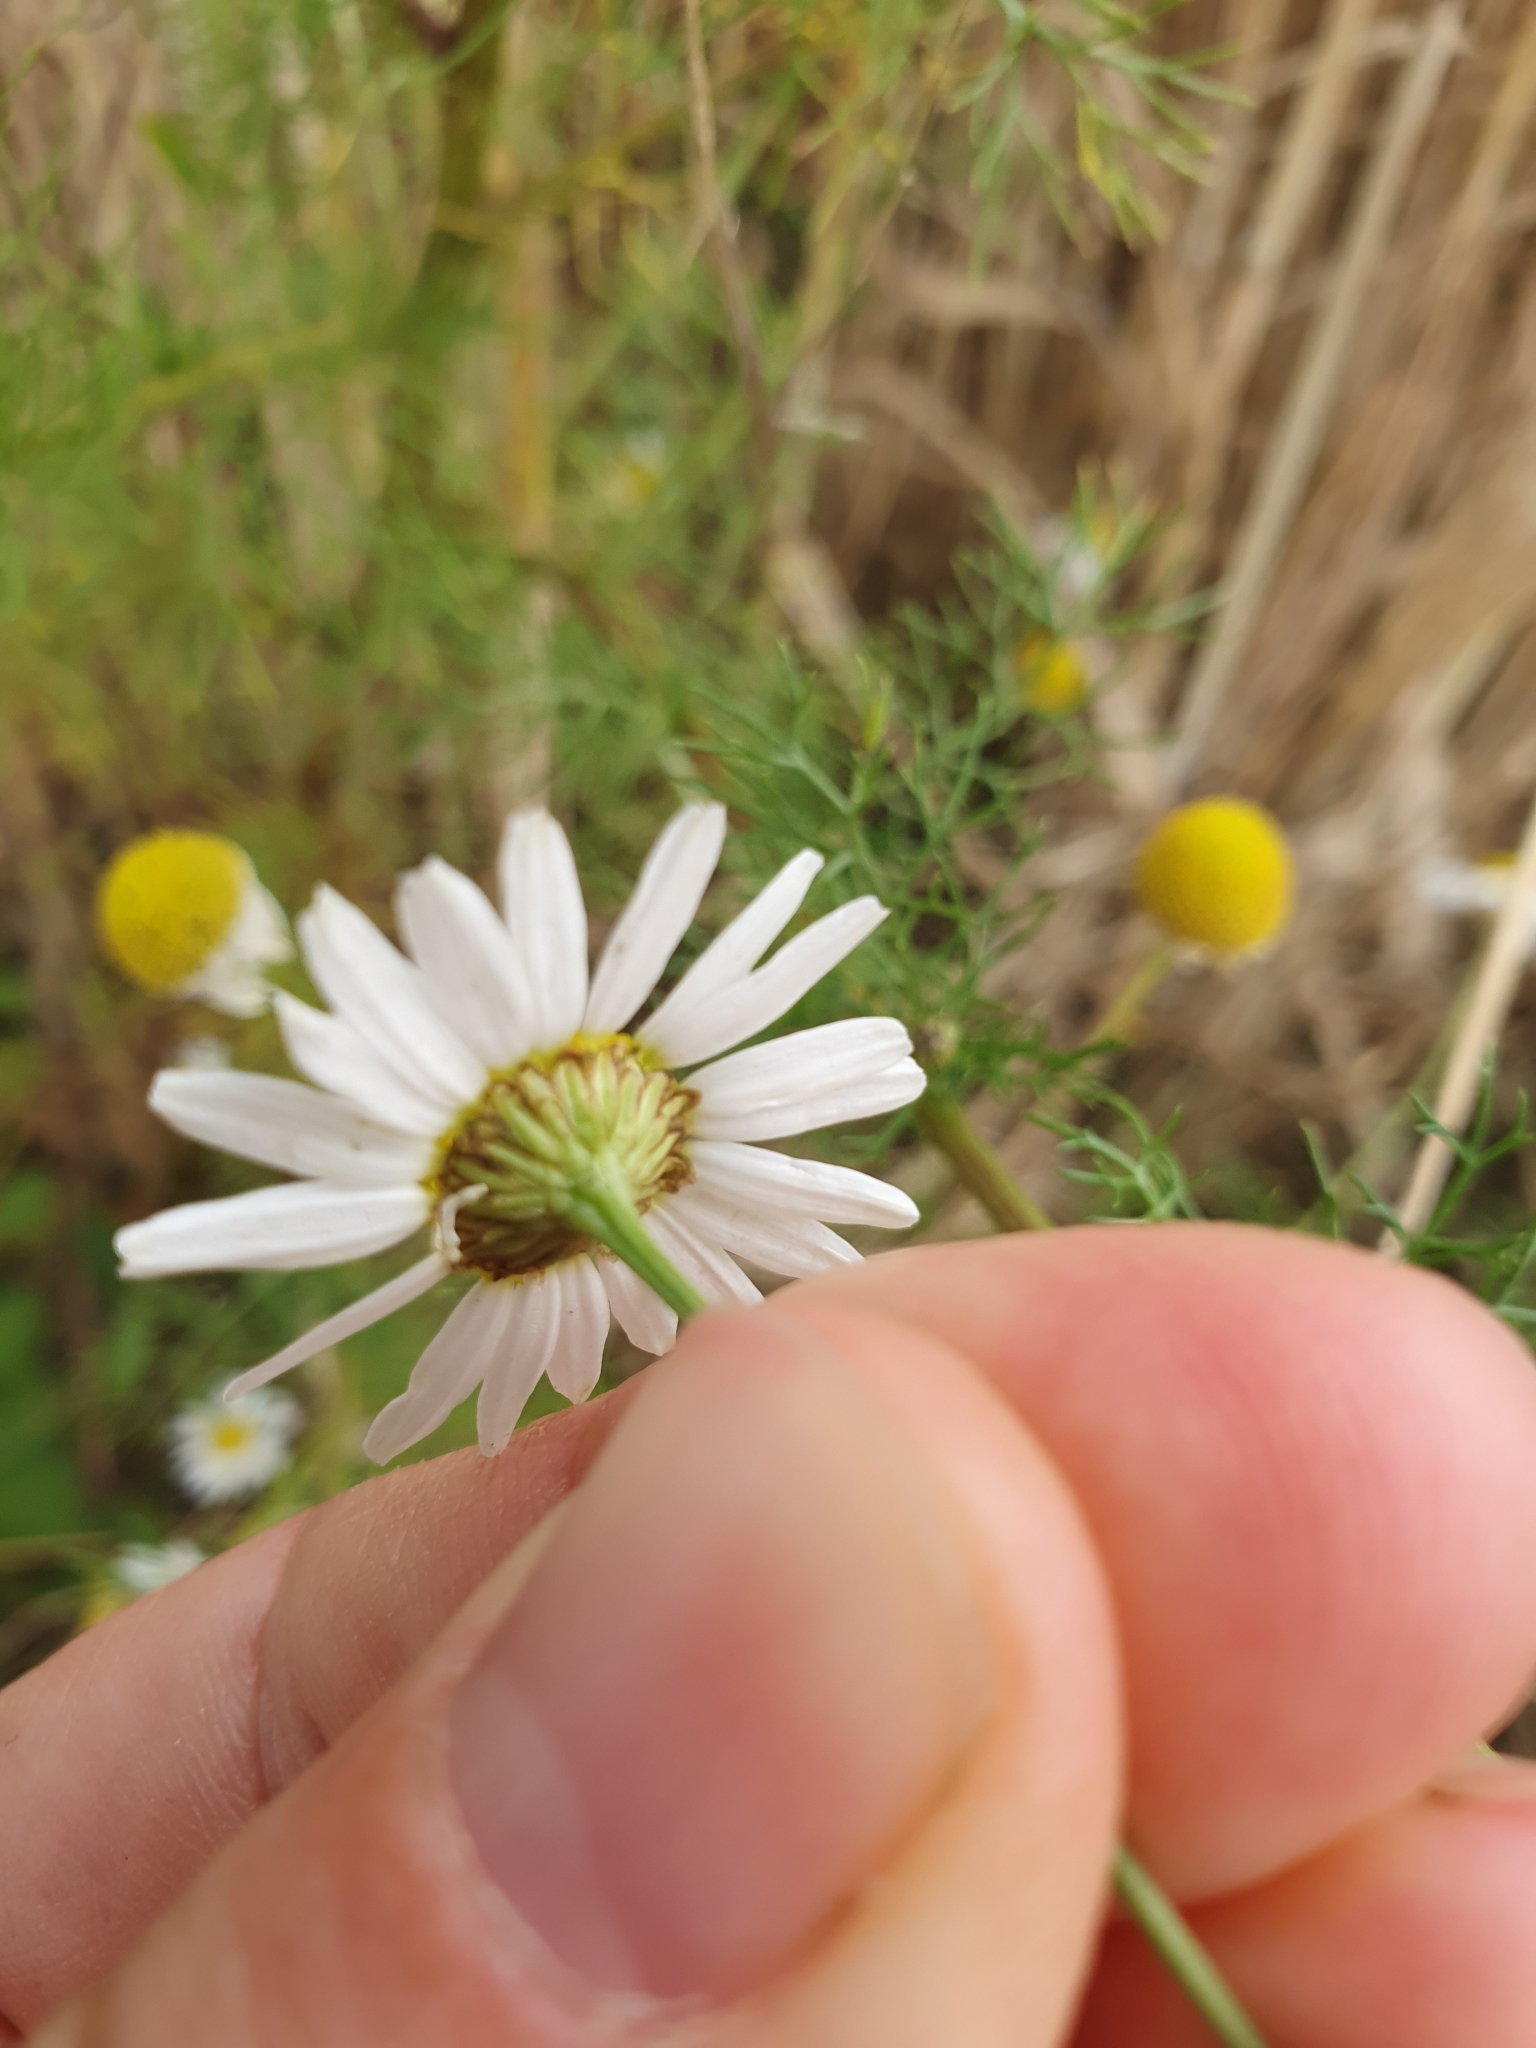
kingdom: Plantae
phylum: Tracheophyta
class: Magnoliopsida
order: Asterales
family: Asteraceae
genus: Tripleurospermum
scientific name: Tripleurospermum inodorum
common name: Scentless mayweed
